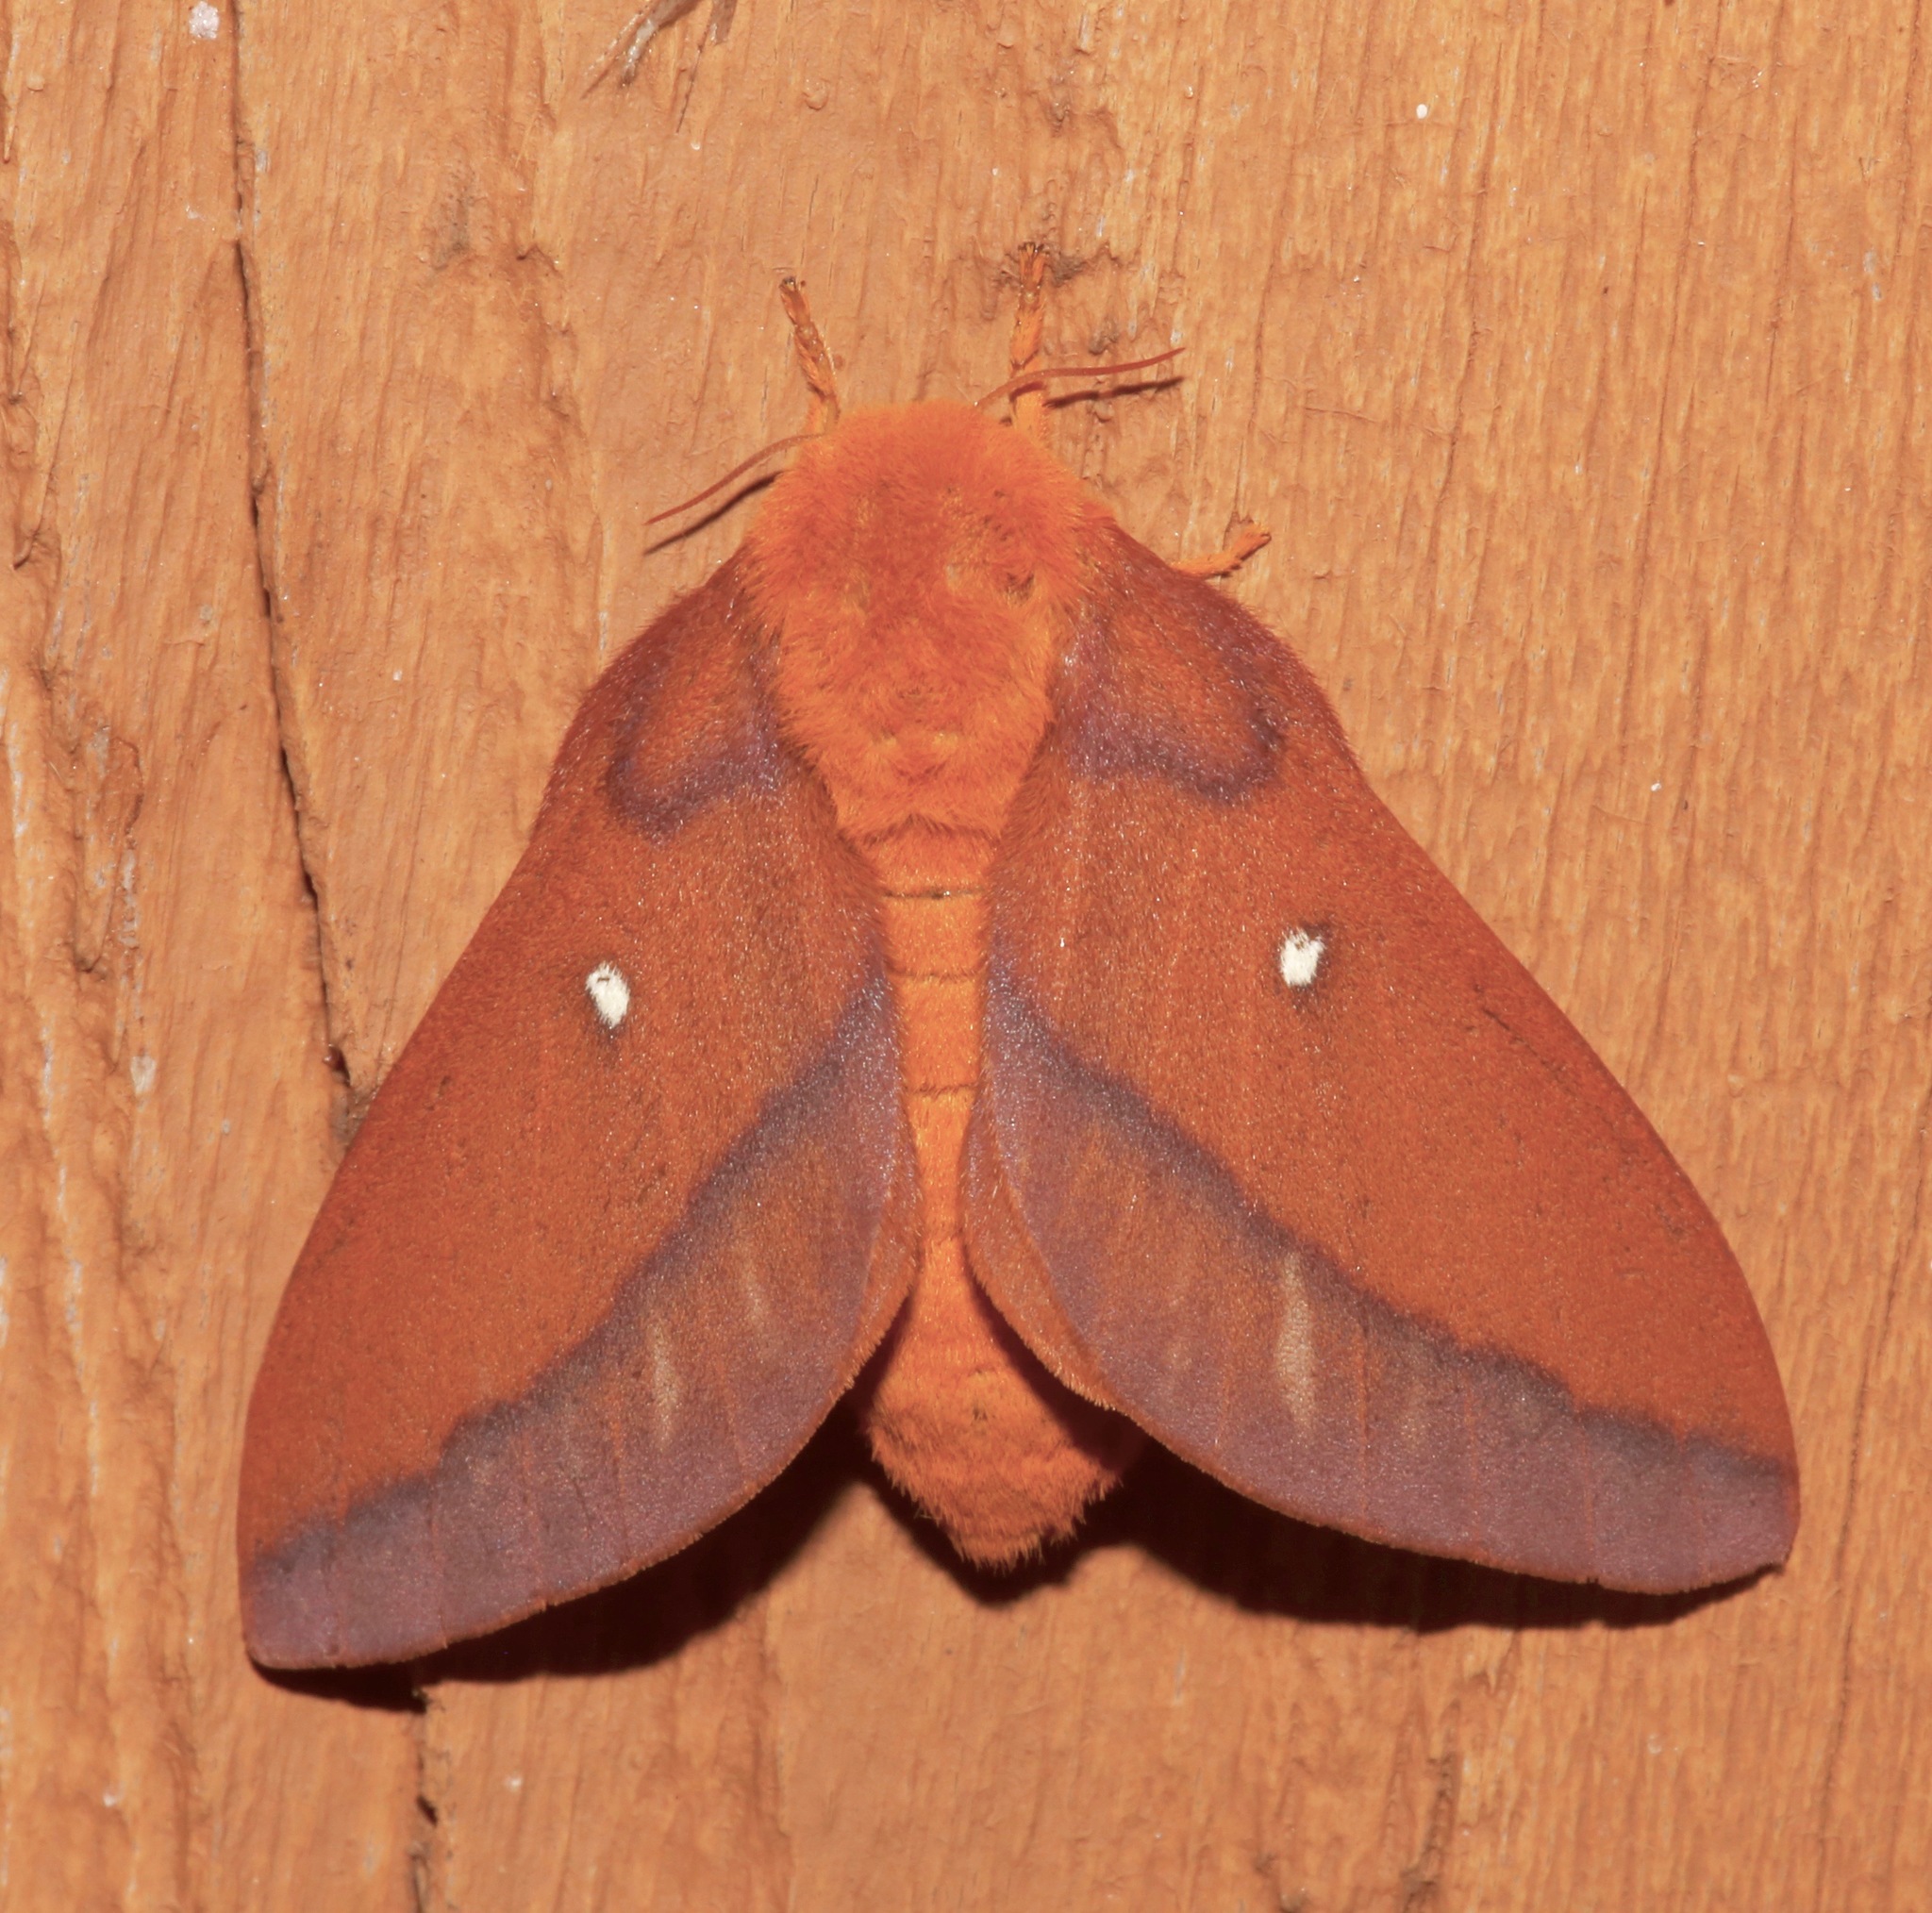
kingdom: Animalia
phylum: Arthropoda
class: Insecta
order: Lepidoptera
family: Saturniidae
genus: Anisota
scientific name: Anisota virginiensis
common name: Pink striped oakworm moth
